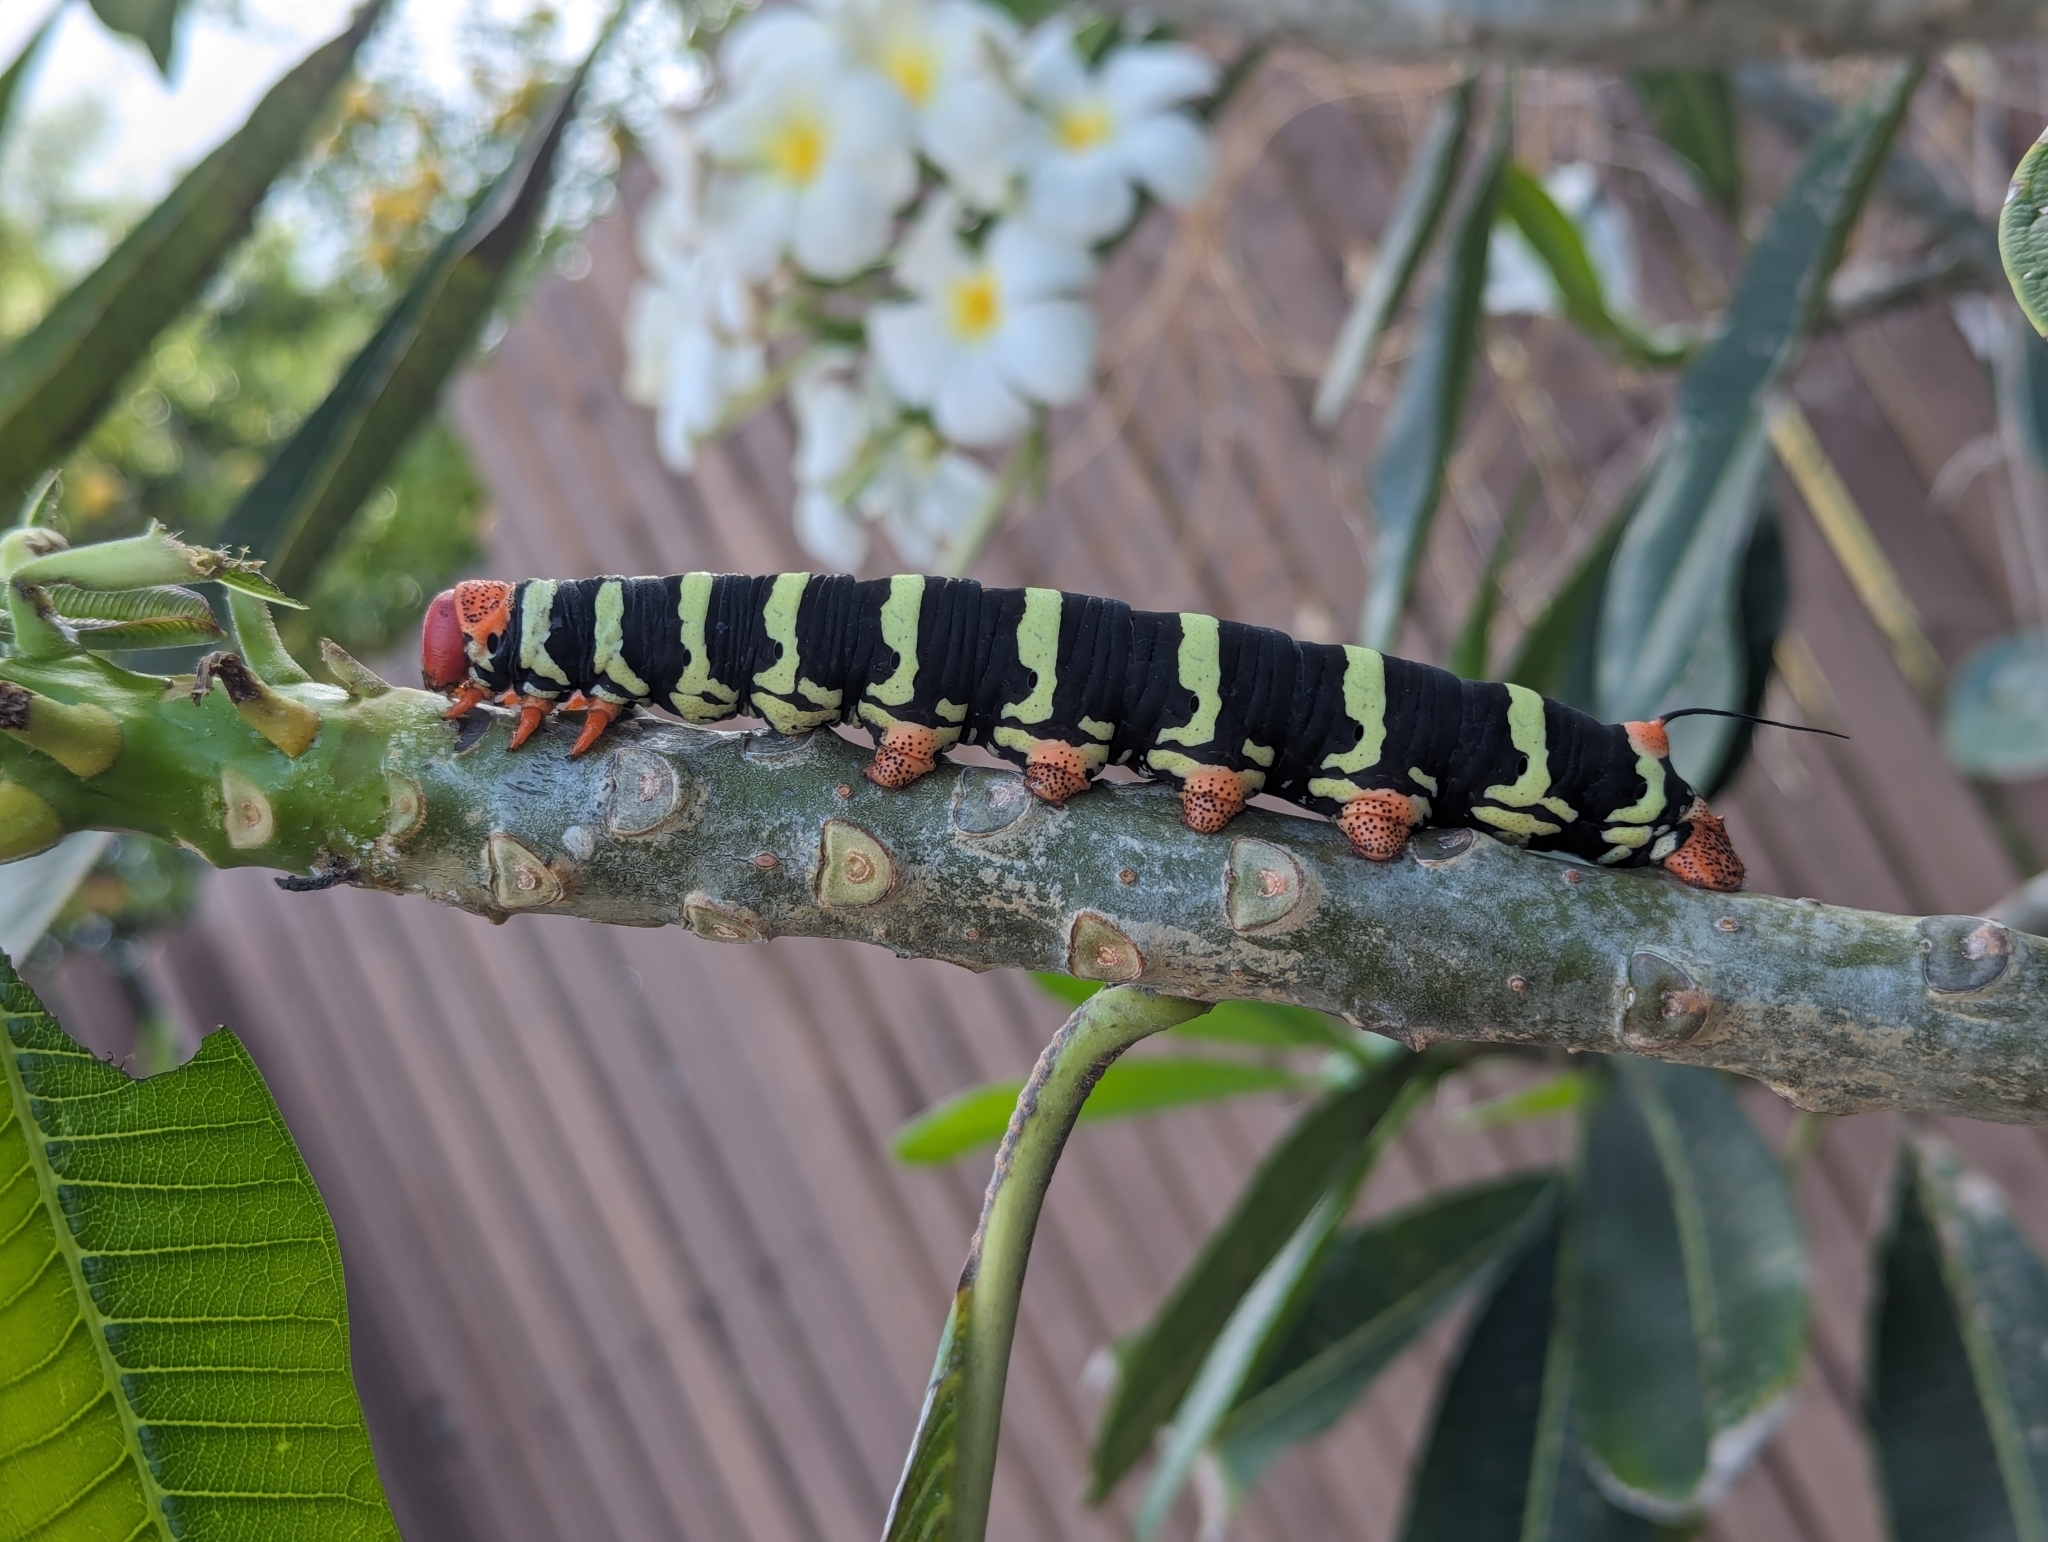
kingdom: Animalia
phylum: Arthropoda
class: Insecta
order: Lepidoptera
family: Sphingidae
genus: Pseudosphinx
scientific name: Pseudosphinx tetrio
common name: Tetrio sphinx
